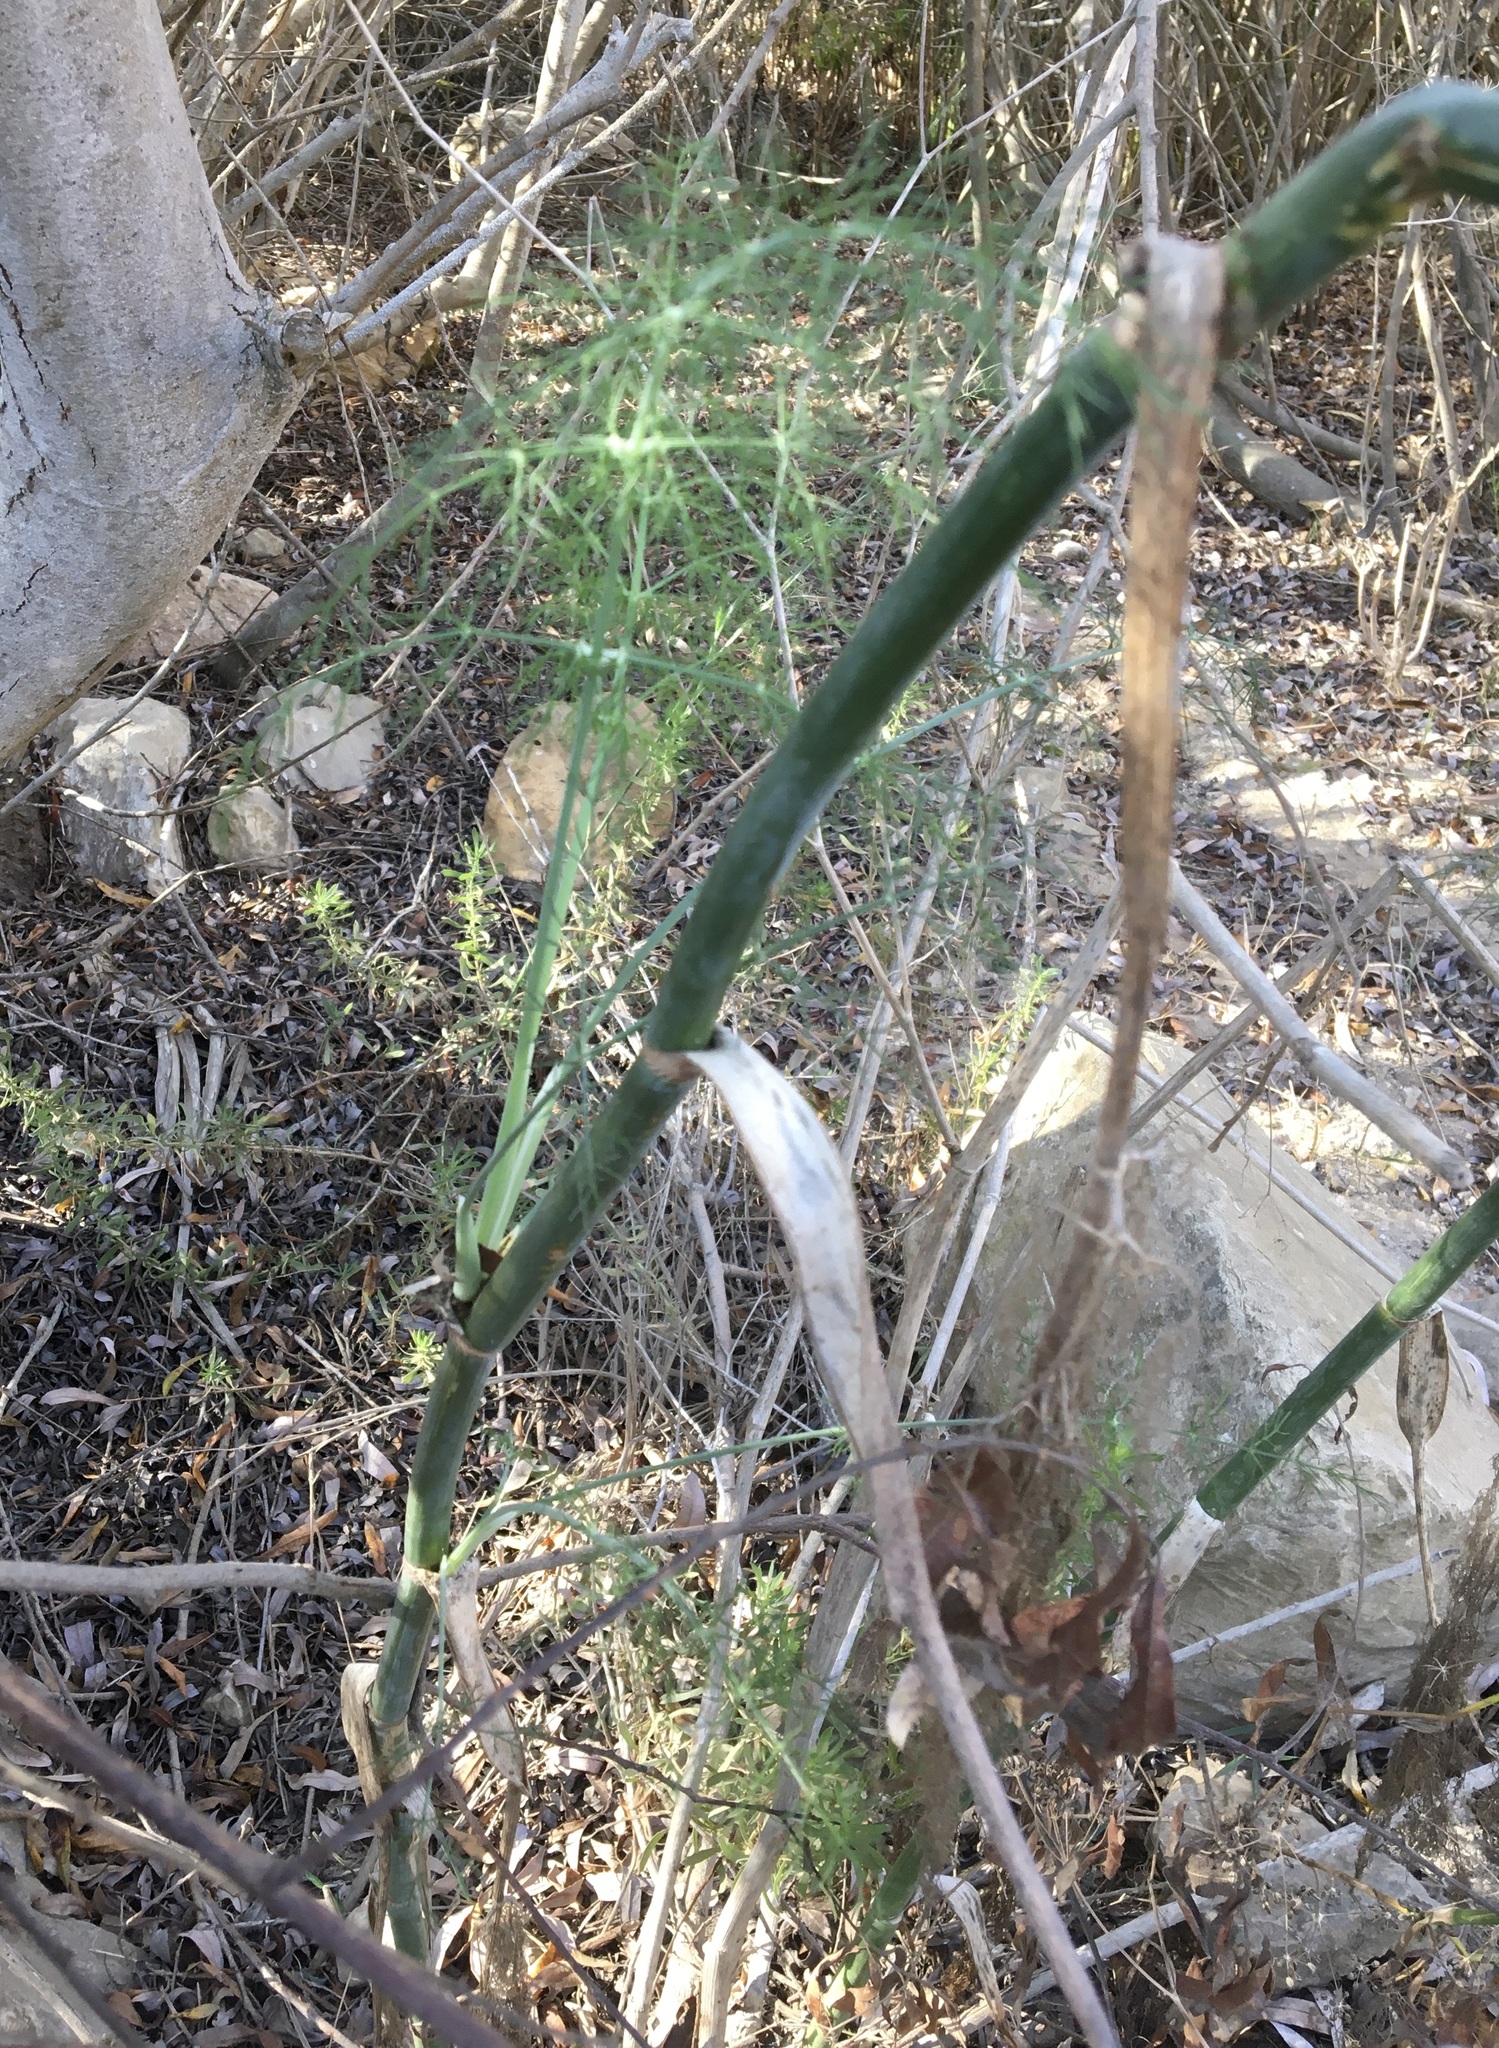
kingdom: Plantae
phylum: Tracheophyta
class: Magnoliopsida
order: Apiales
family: Apiaceae
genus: Foeniculum
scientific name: Foeniculum vulgare
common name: Fennel
